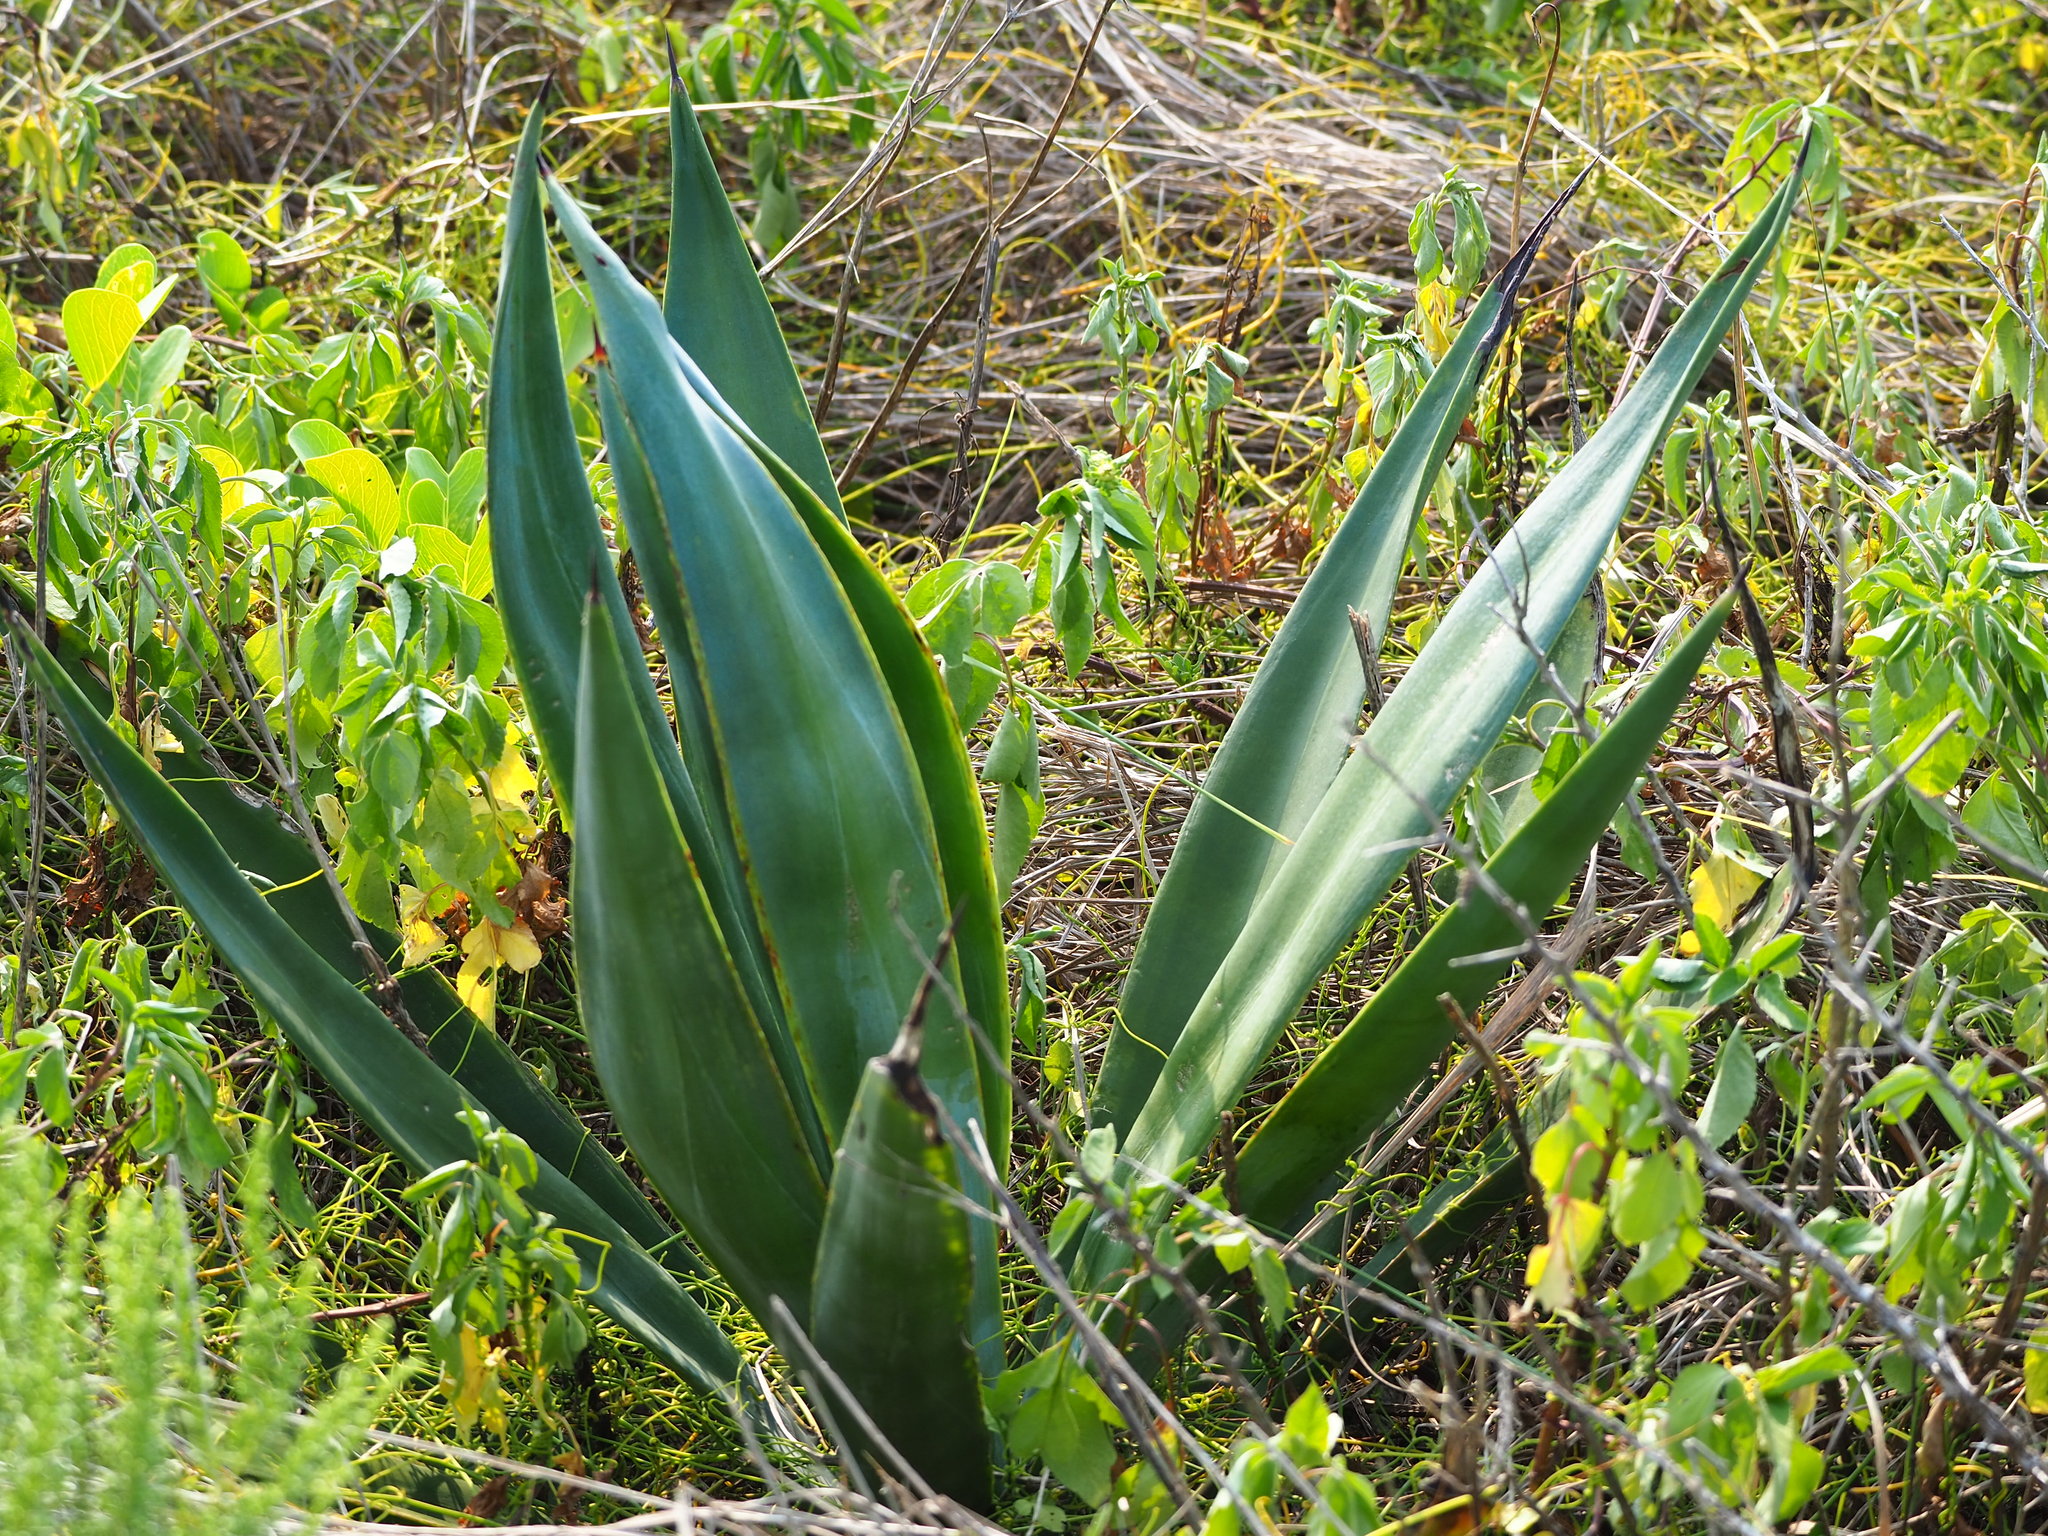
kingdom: Plantae
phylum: Tracheophyta
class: Liliopsida
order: Asparagales
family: Asparagaceae
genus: Agave
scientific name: Agave sisalana
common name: Sisal hemp
